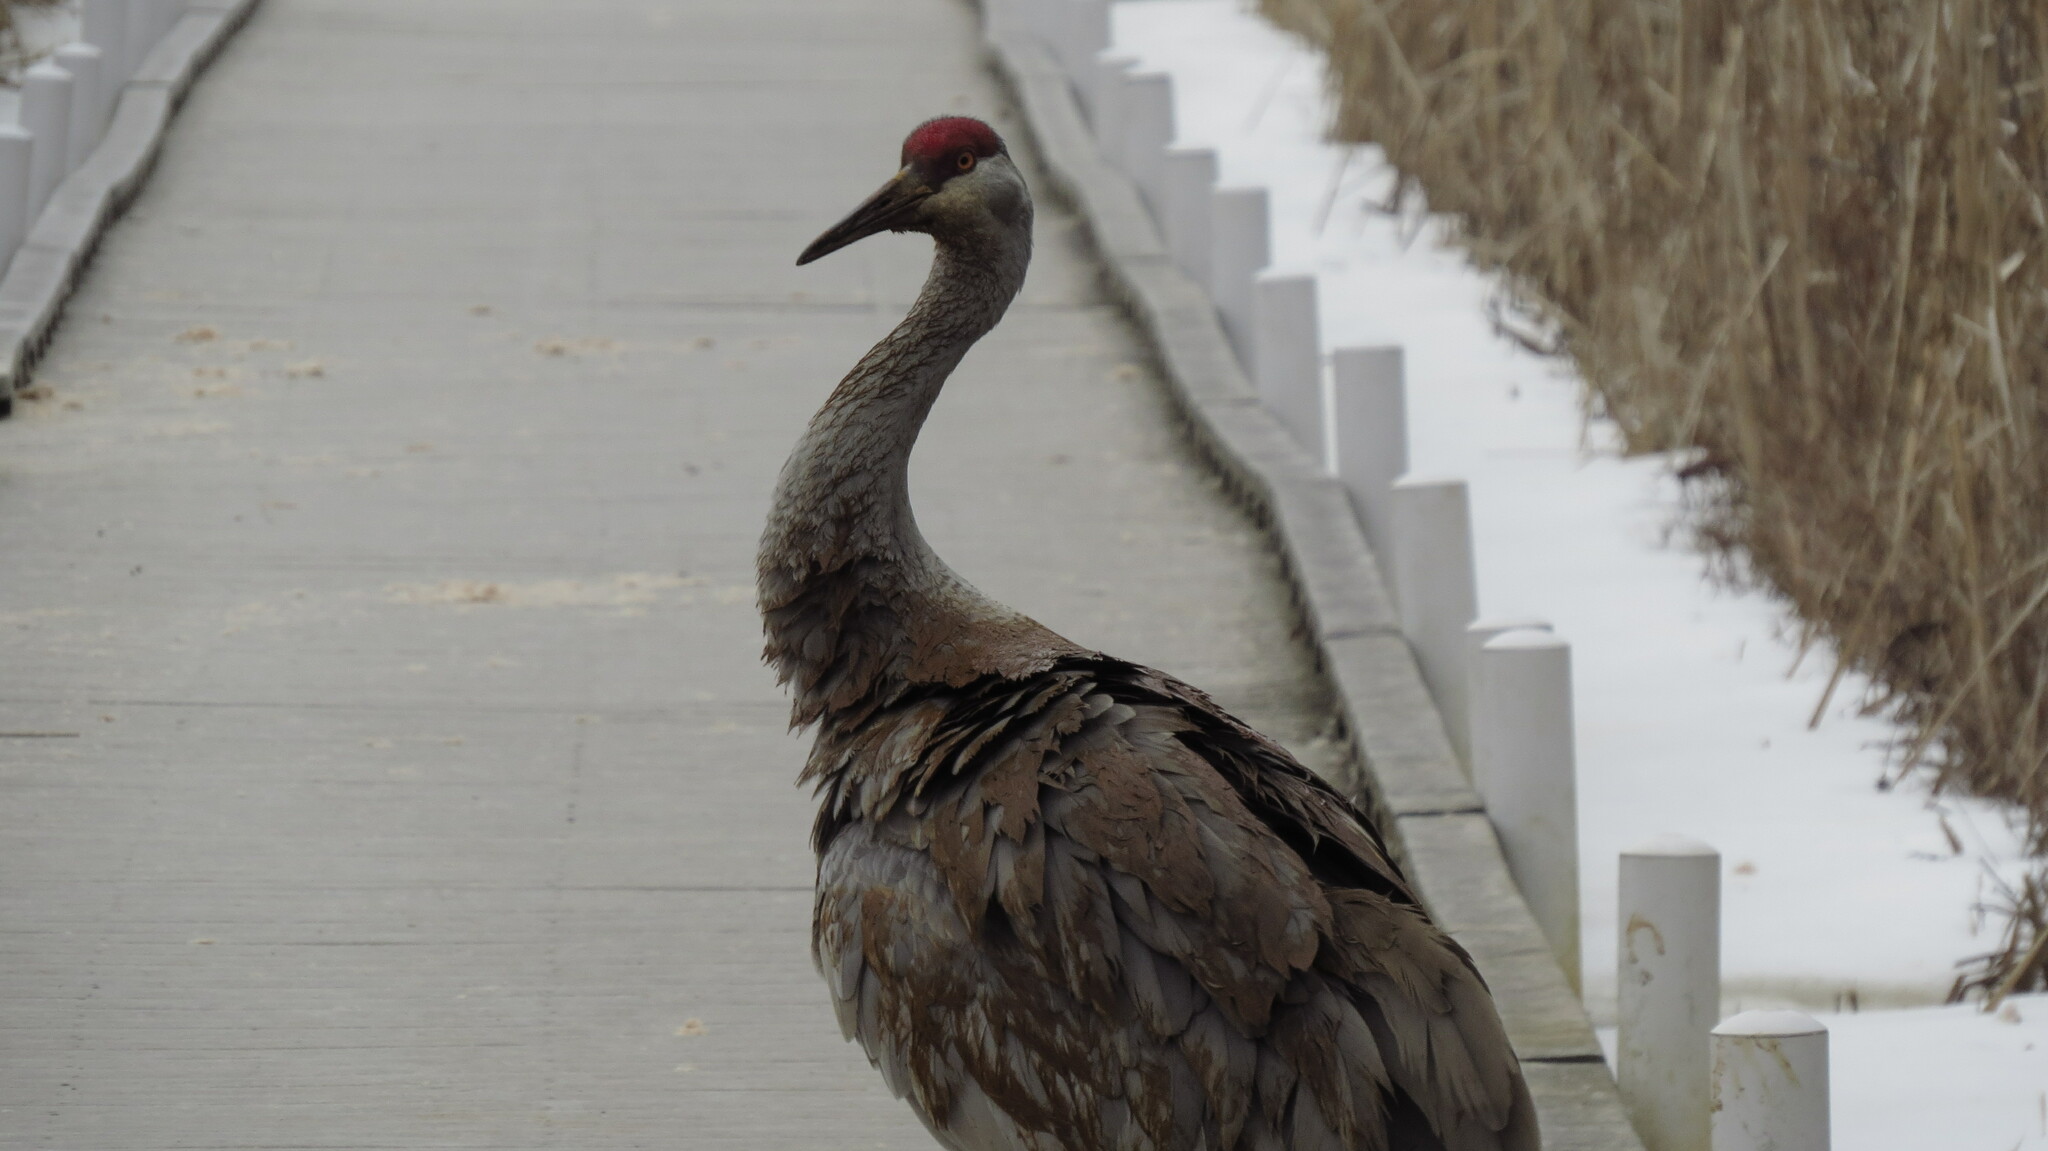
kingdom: Animalia
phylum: Chordata
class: Aves
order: Gruiformes
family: Gruidae
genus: Grus
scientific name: Grus canadensis
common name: Sandhill crane
